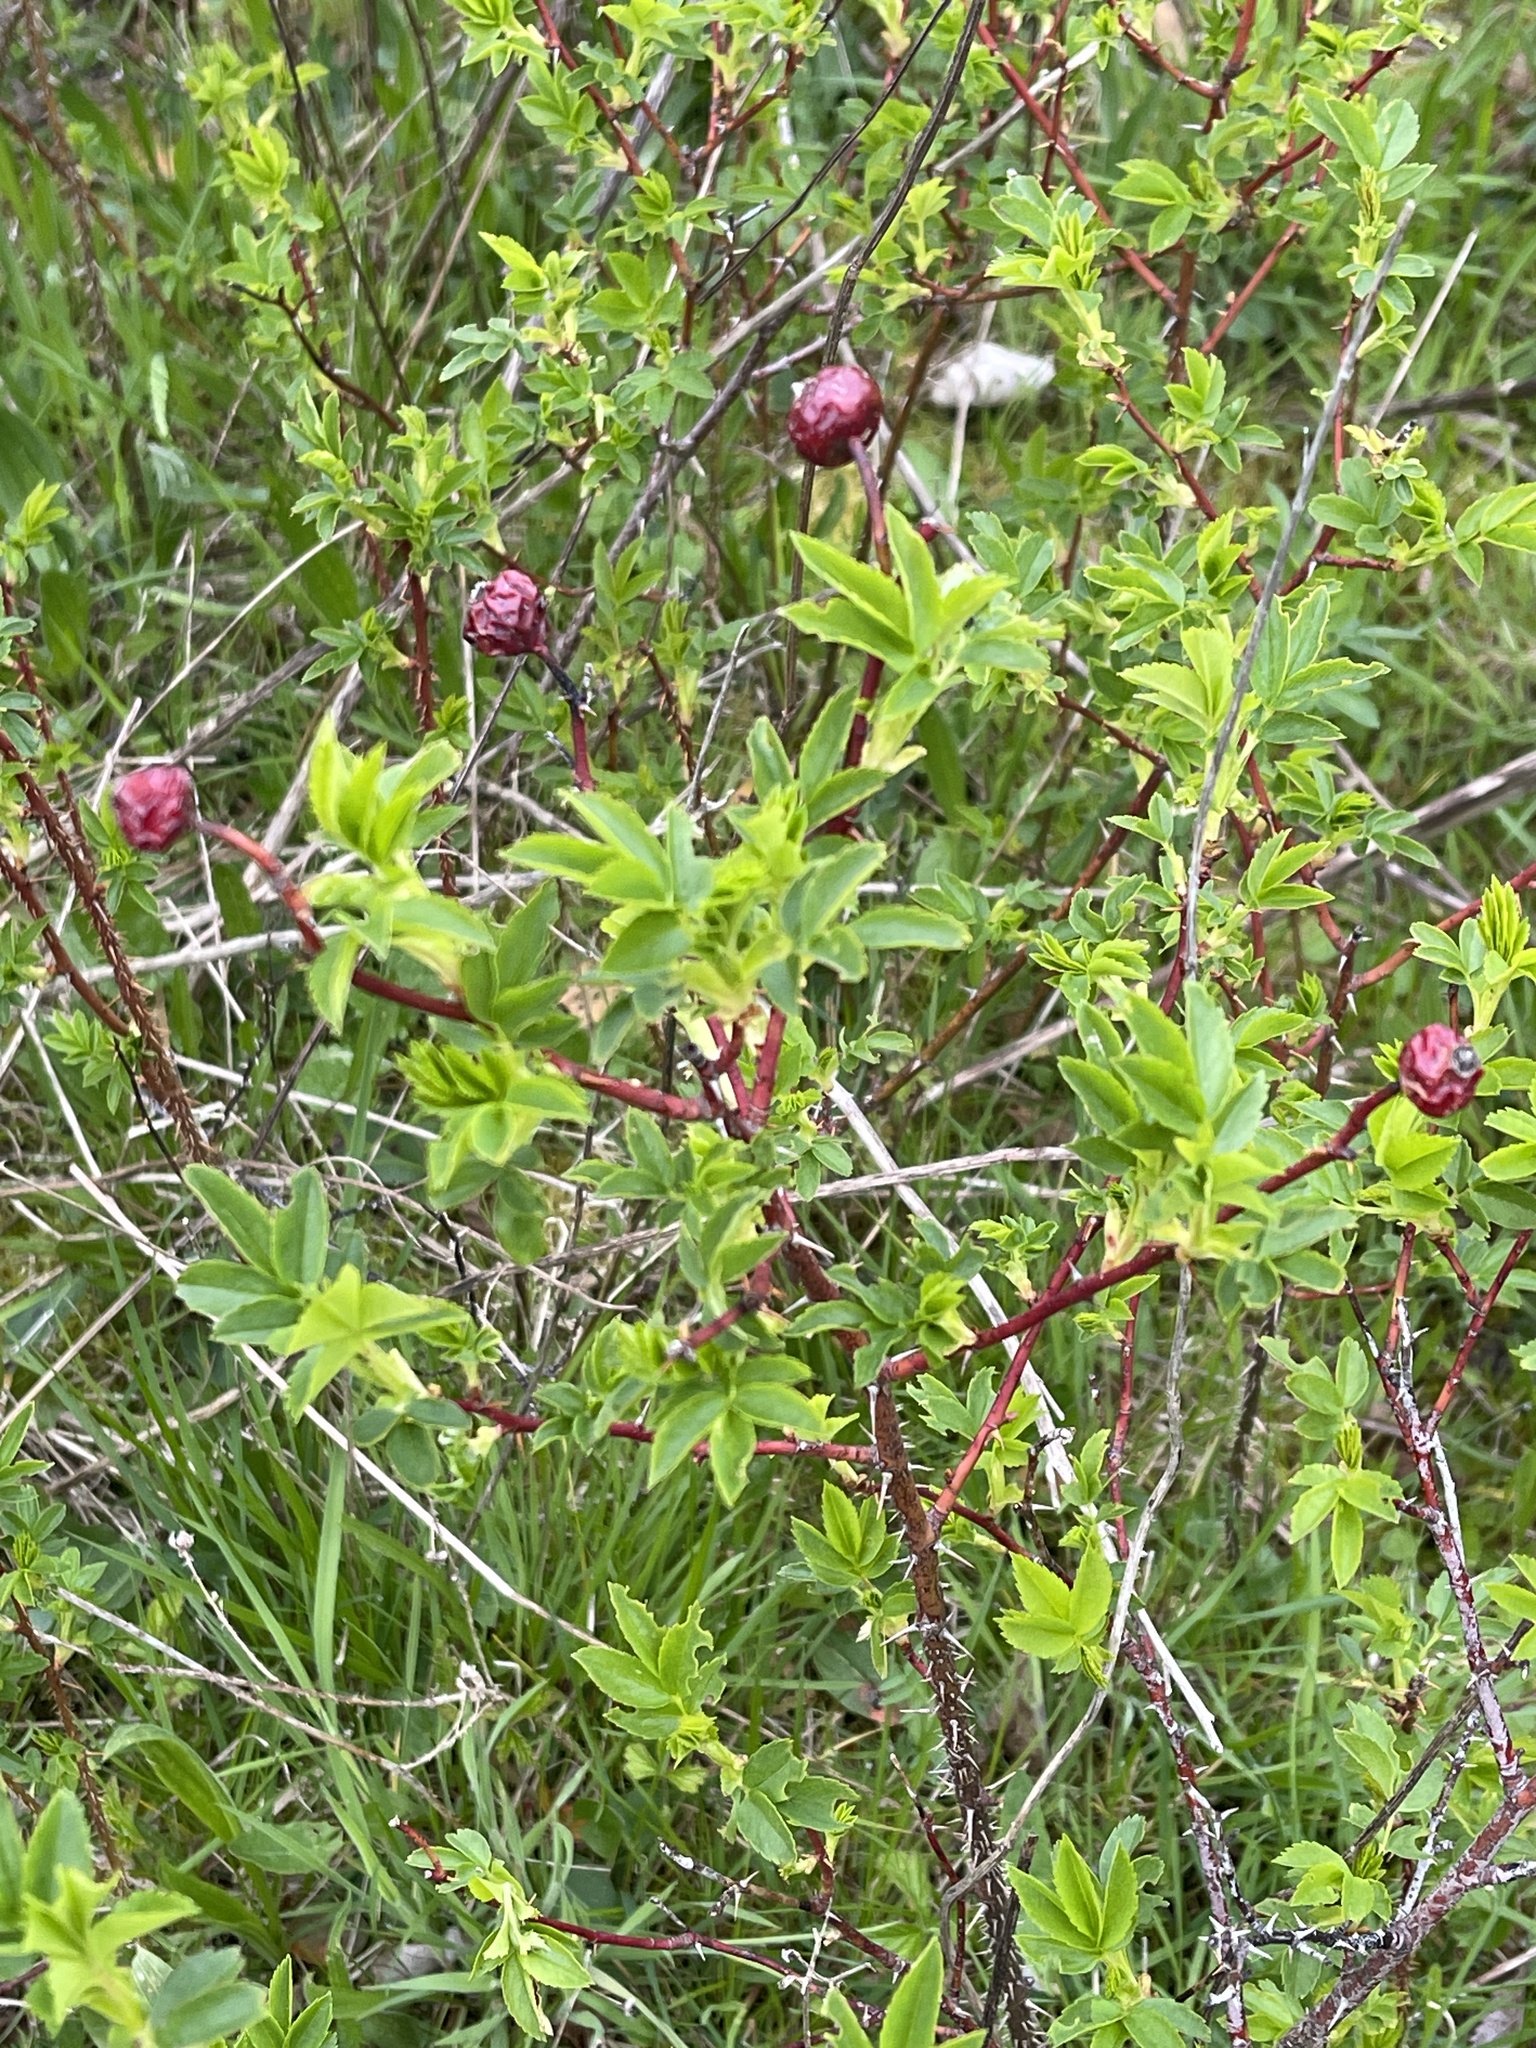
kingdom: Plantae
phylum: Tracheophyta
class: Magnoliopsida
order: Rosales
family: Rosaceae
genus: Rosa
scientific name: Rosa virginiana
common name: Virginian rose
